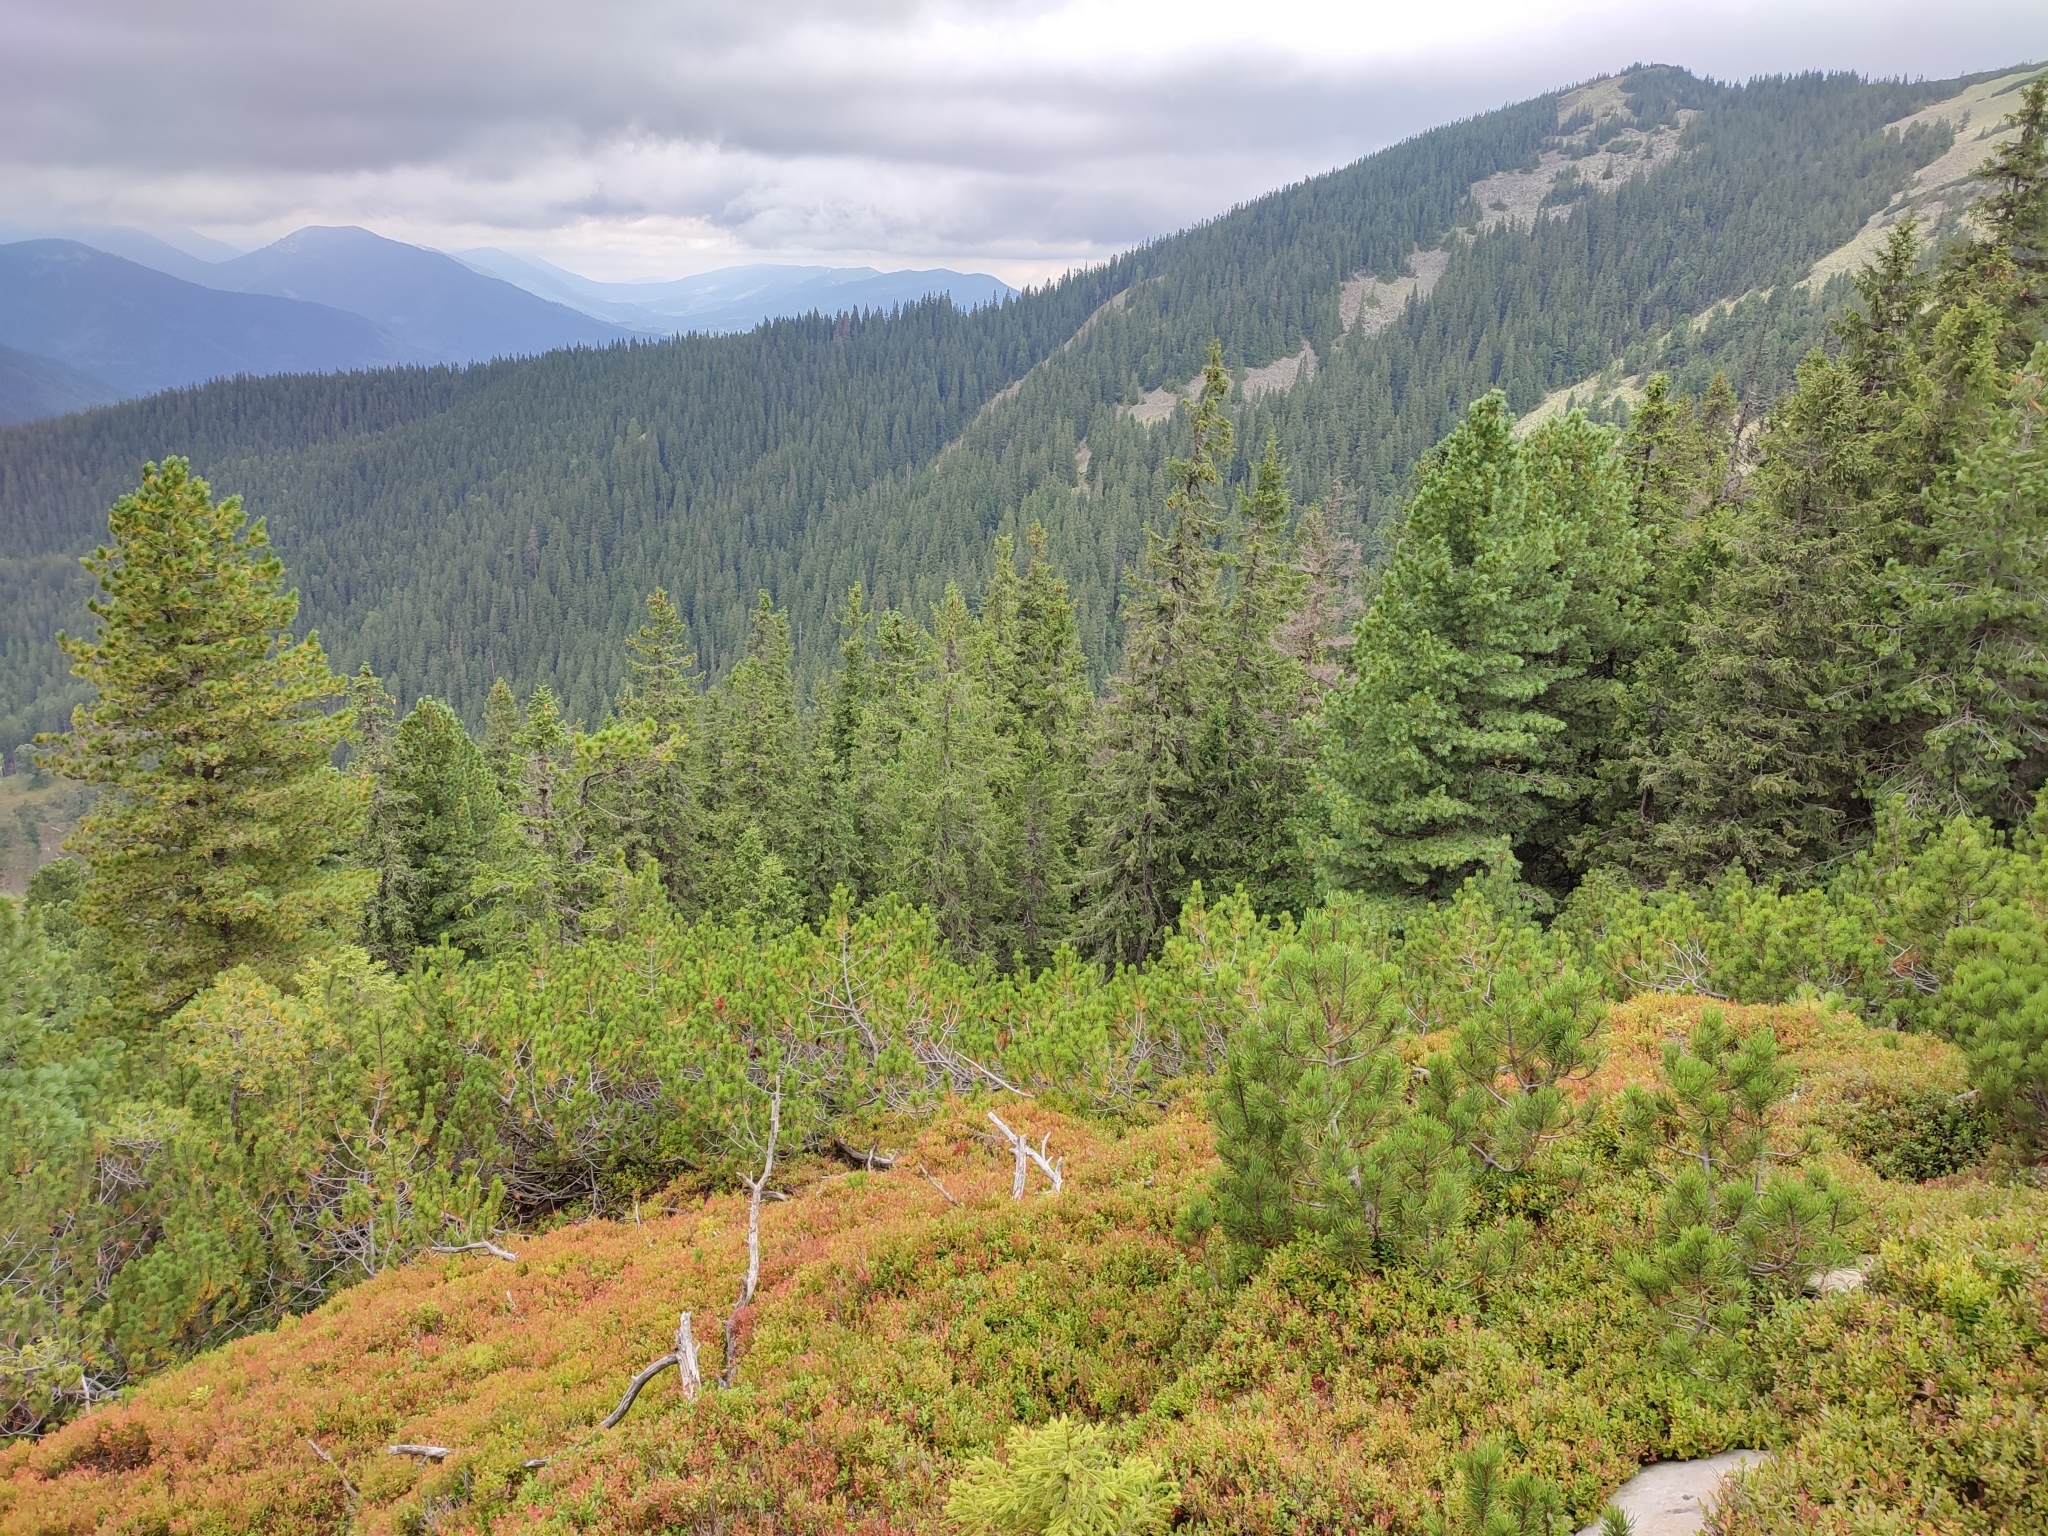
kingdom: Plantae
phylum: Tracheophyta
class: Pinopsida
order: Pinales
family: Pinaceae
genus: Pinus
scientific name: Pinus cembra
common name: Arolla pine
